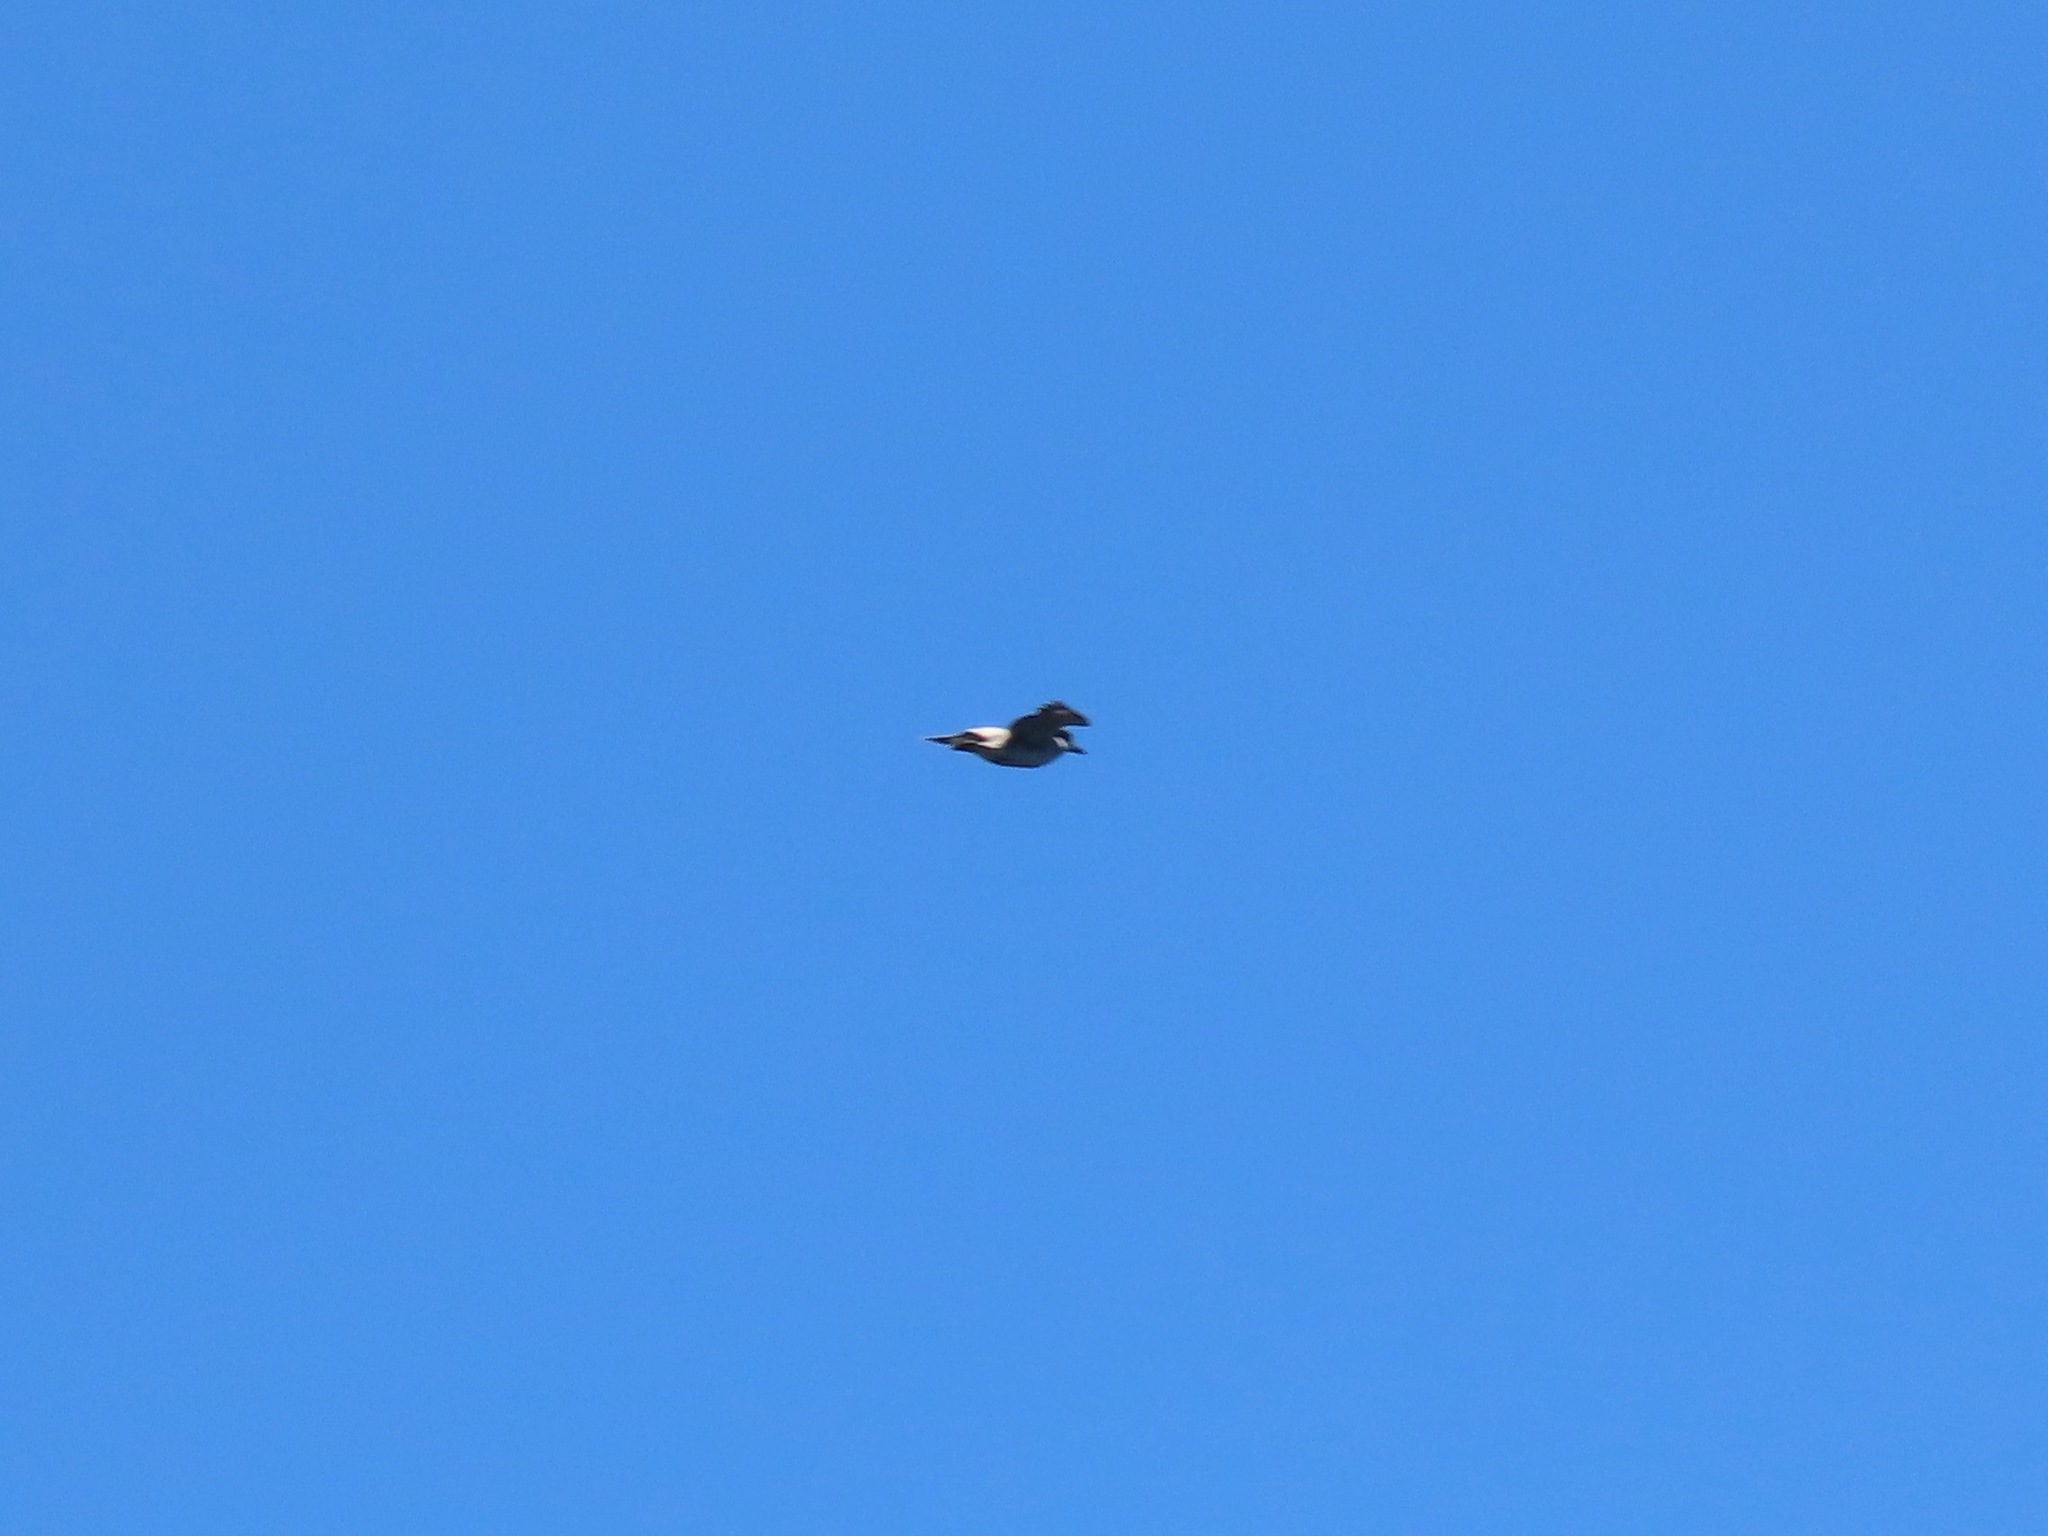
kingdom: Animalia
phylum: Chordata
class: Aves
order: Coraciiformes
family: Alcedinidae
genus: Megaceryle
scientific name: Megaceryle alcyon
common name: Belted kingfisher
